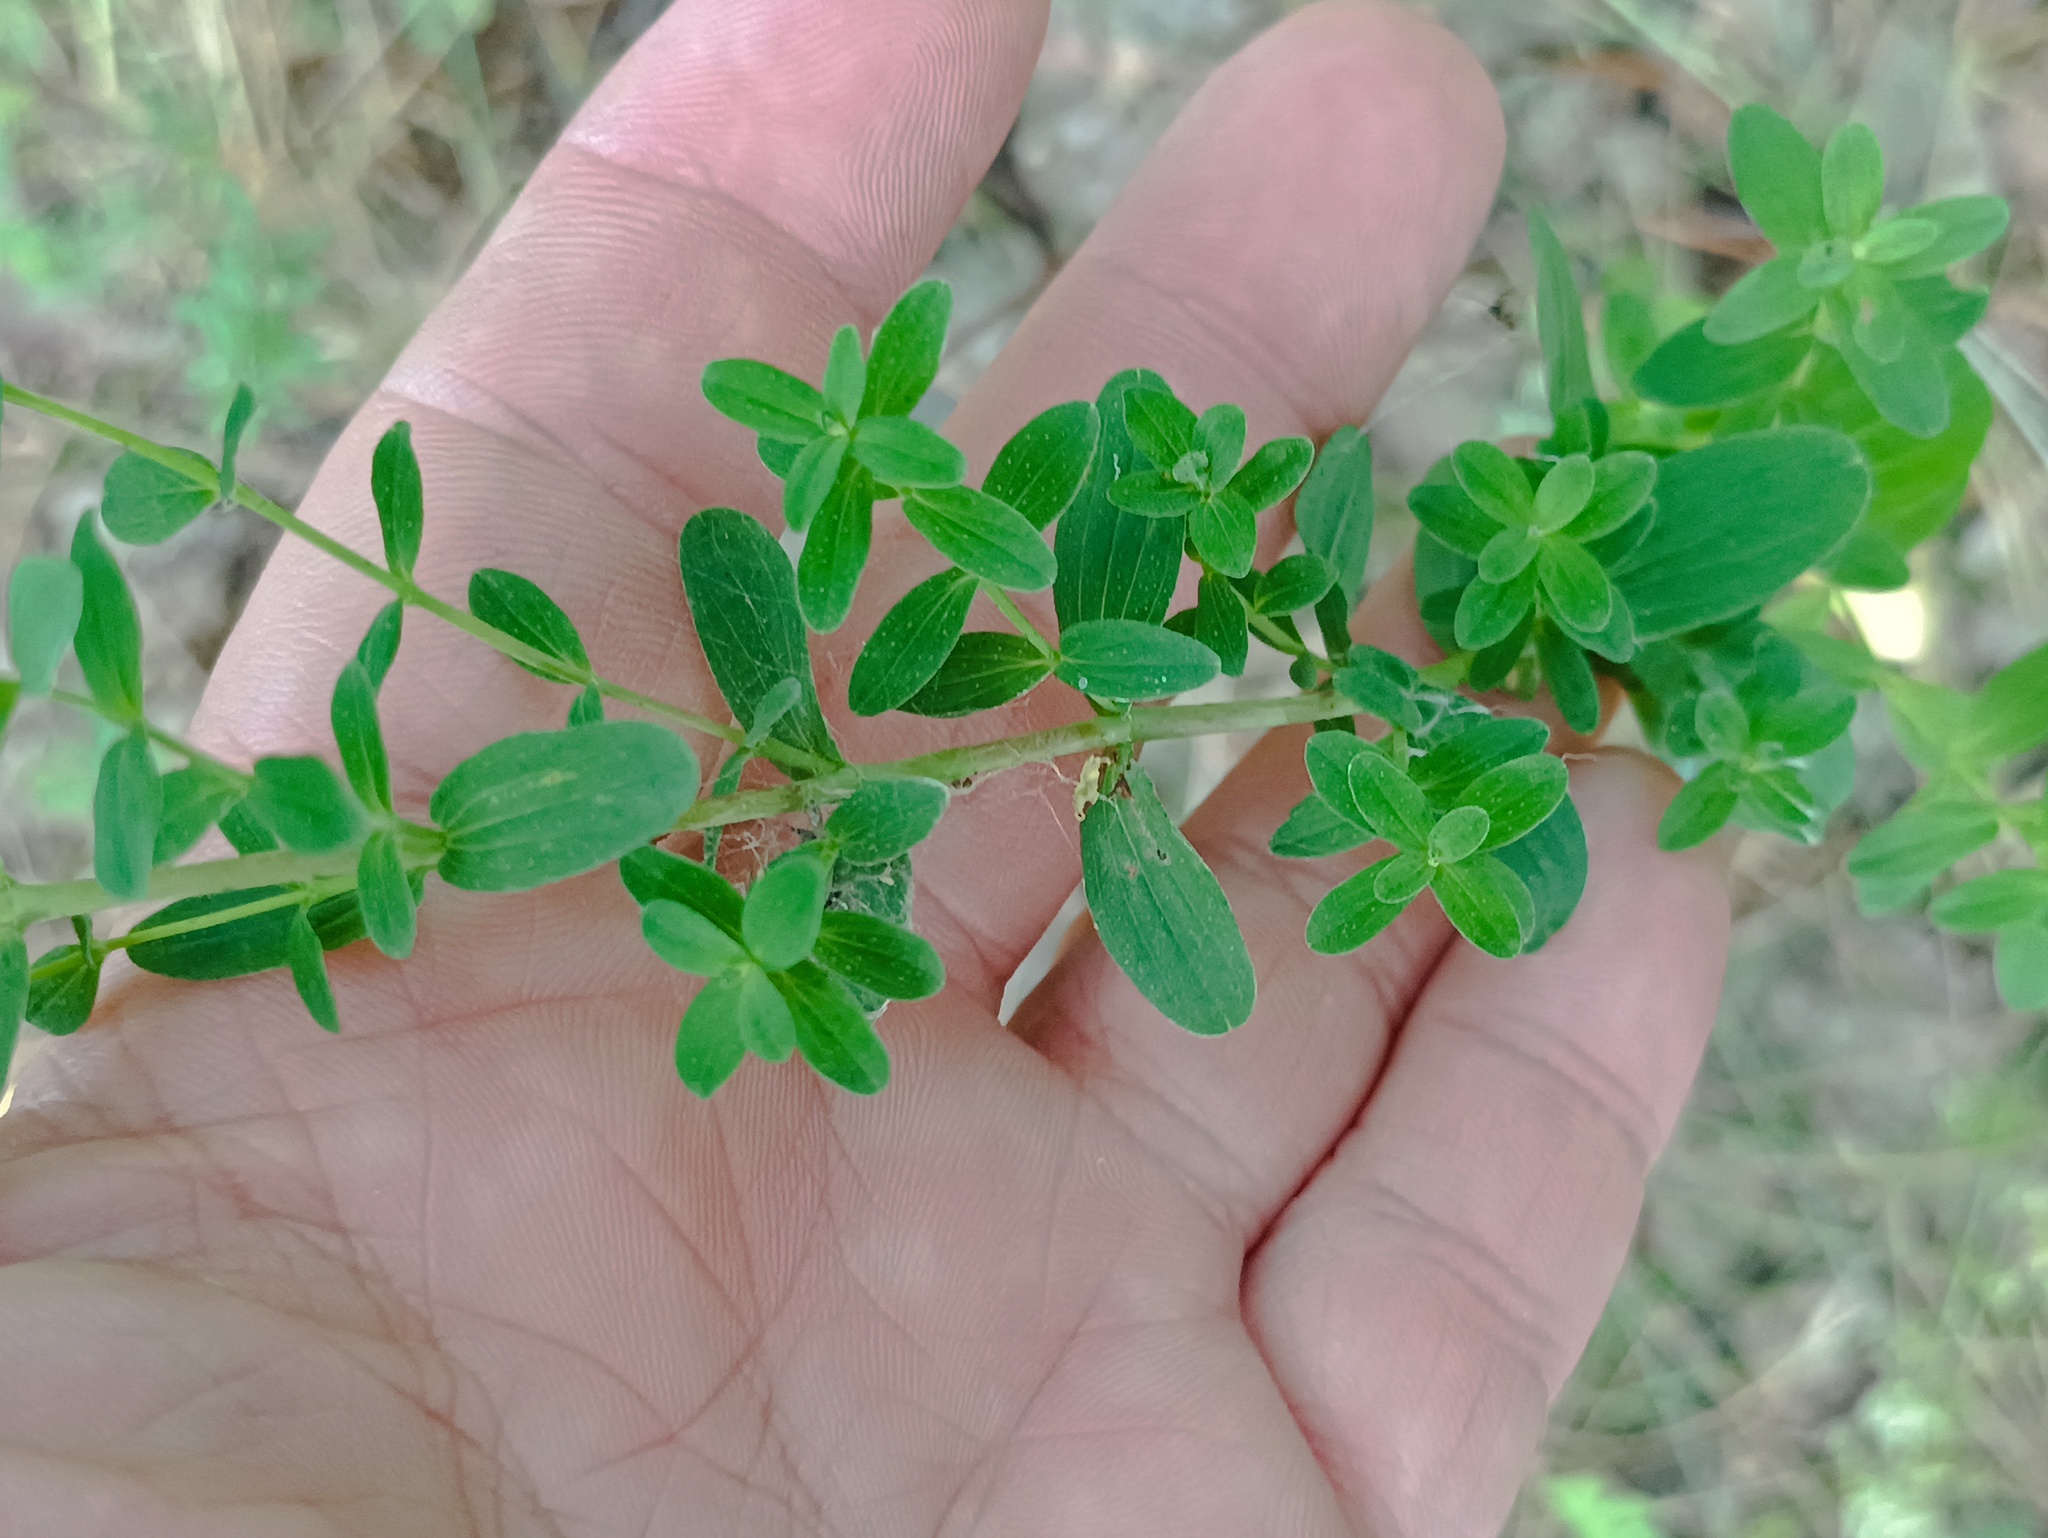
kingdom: Plantae
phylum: Tracheophyta
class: Magnoliopsida
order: Malpighiales
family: Hypericaceae
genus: Hypericum
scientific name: Hypericum perforatum
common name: Common st. johnswort
